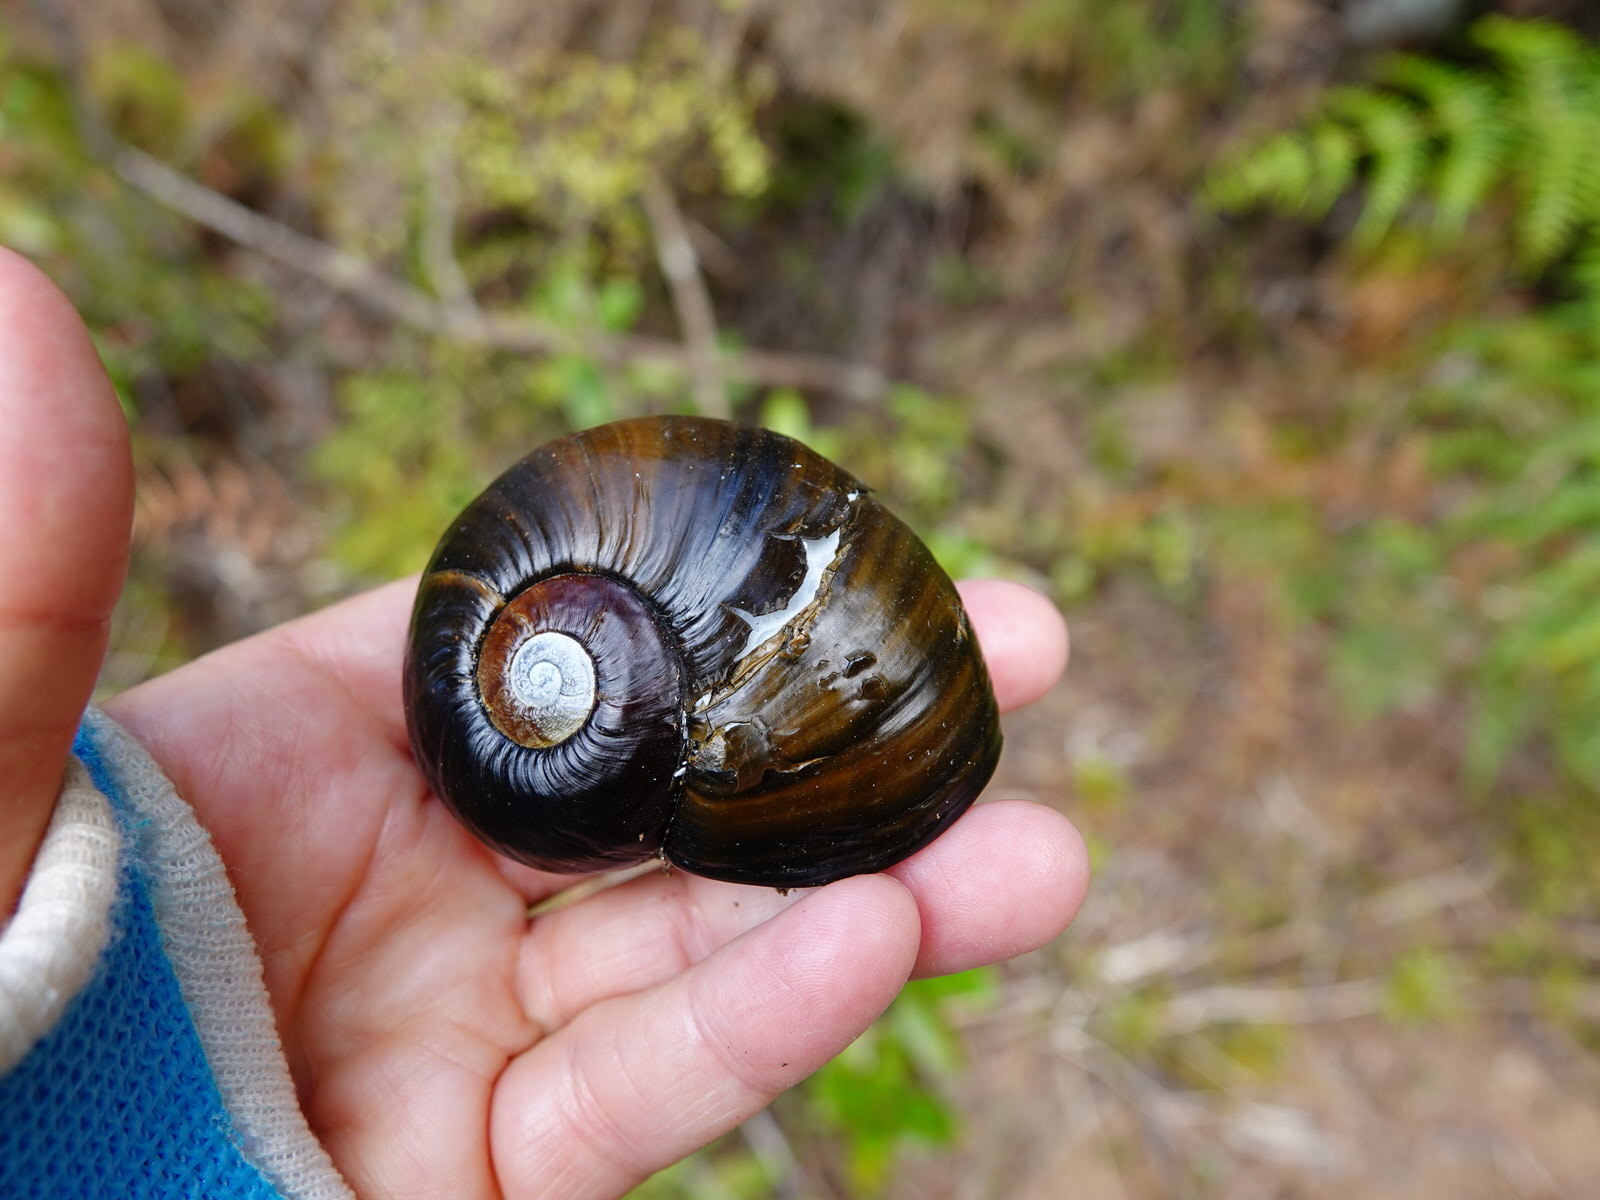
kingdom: Animalia
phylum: Mollusca
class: Gastropoda
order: Stylommatophora
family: Rhytididae
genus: Paryphanta
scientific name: Paryphanta busbyi
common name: Kauri snail
